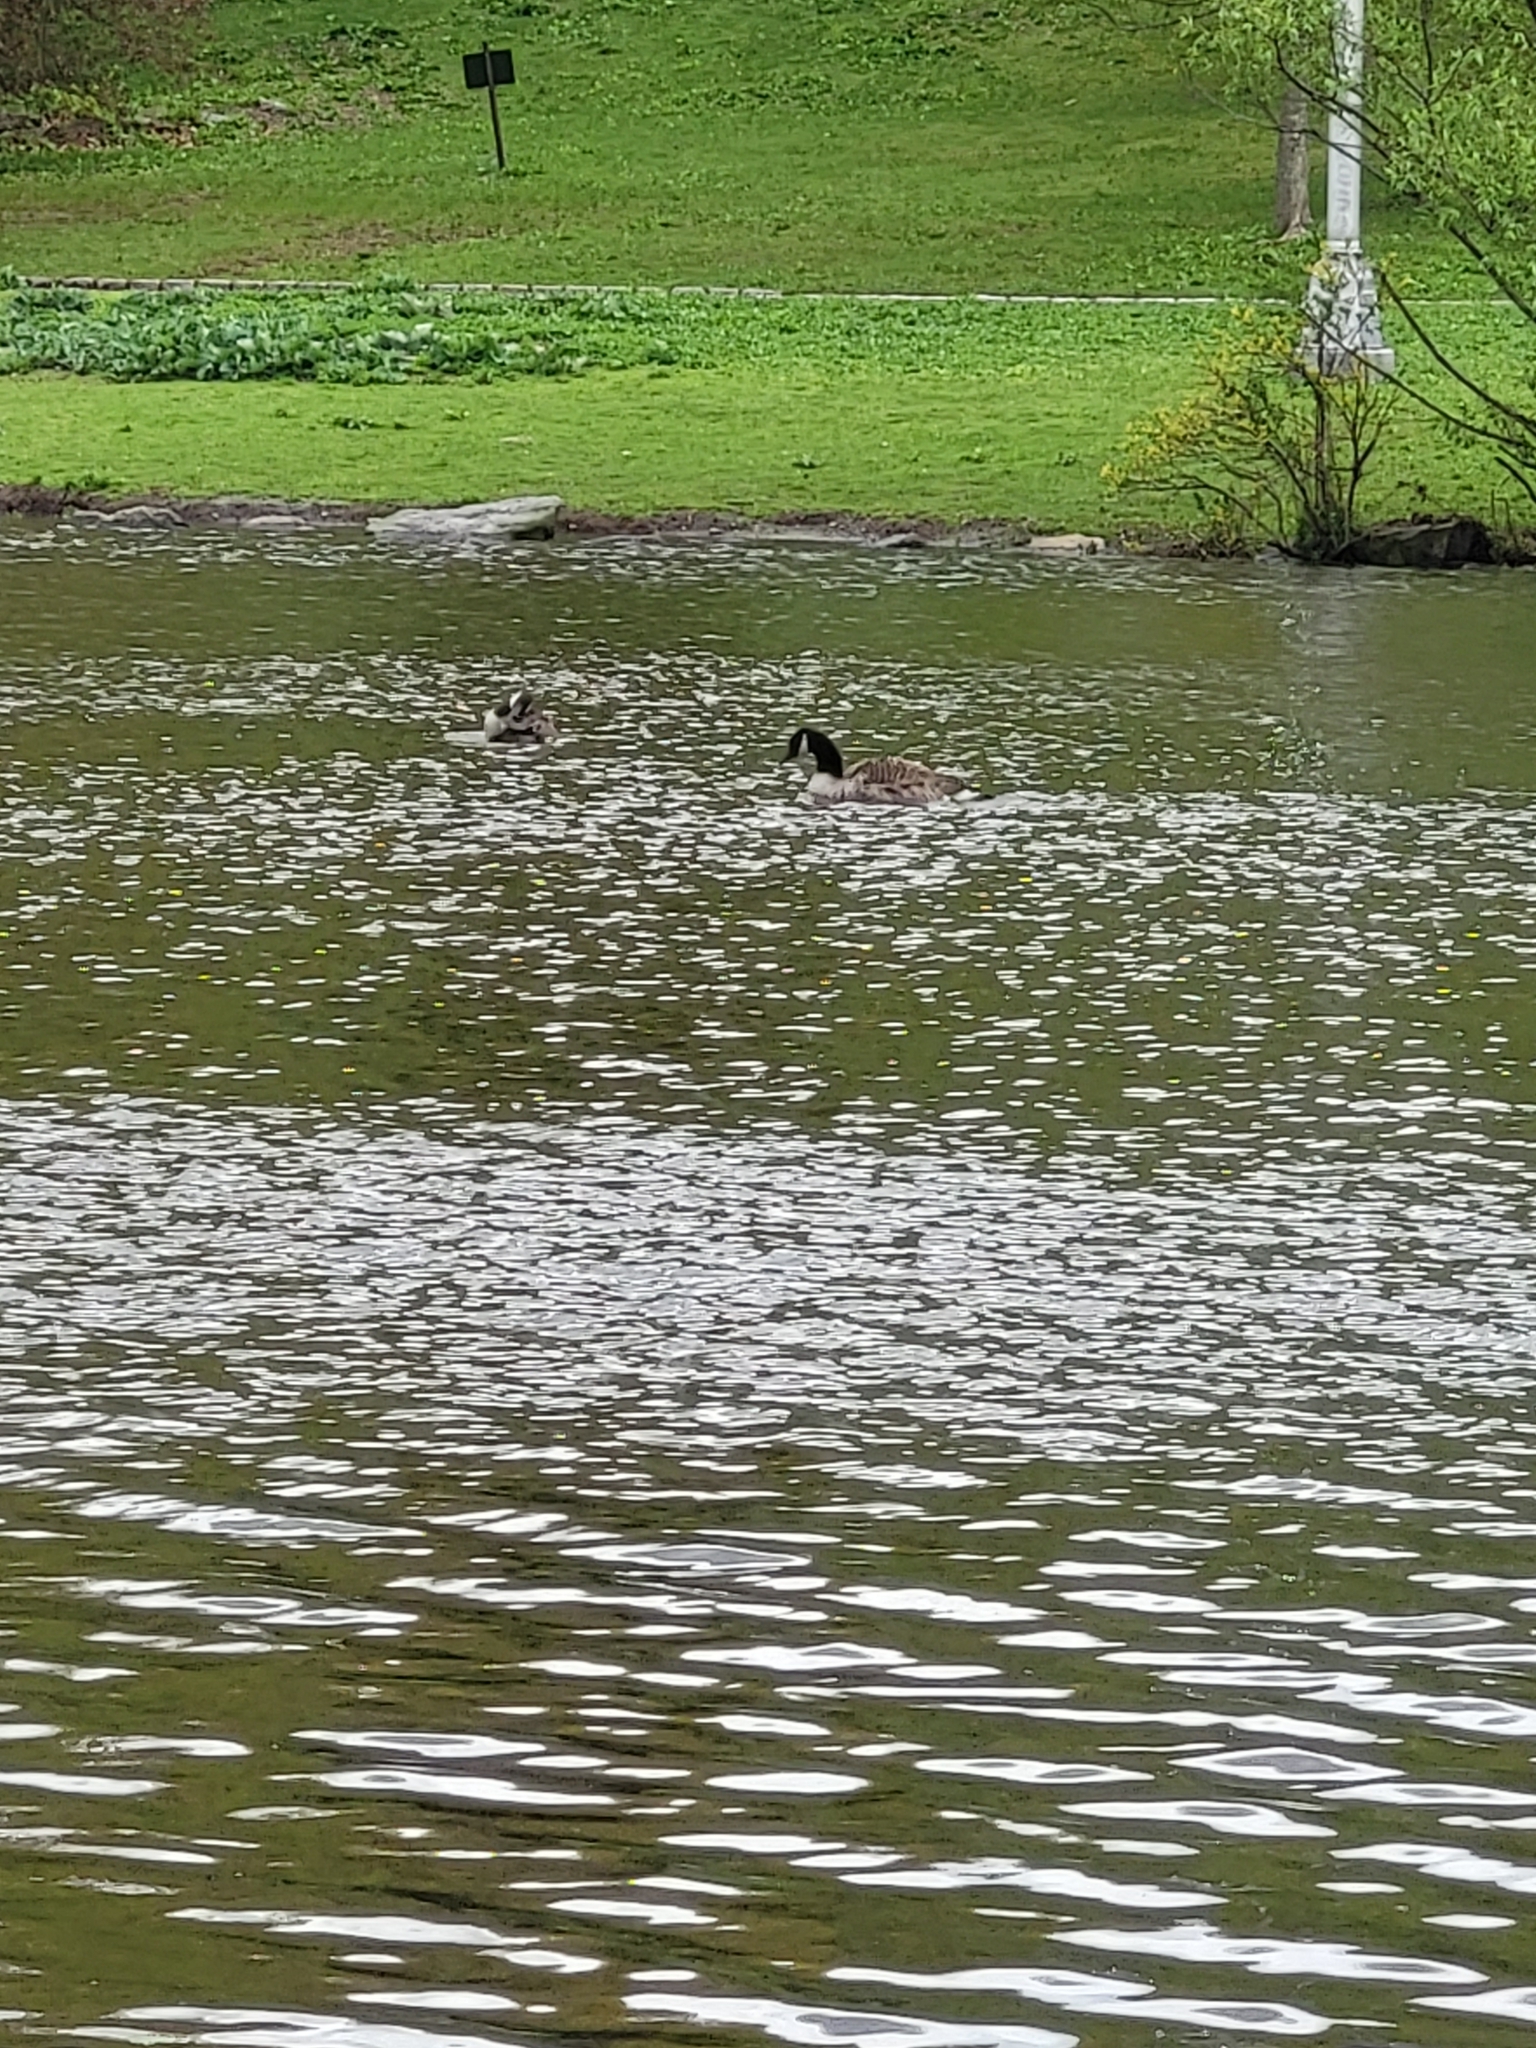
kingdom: Animalia
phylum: Chordata
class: Aves
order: Anseriformes
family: Anatidae
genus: Branta
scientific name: Branta canadensis
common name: Canada goose
